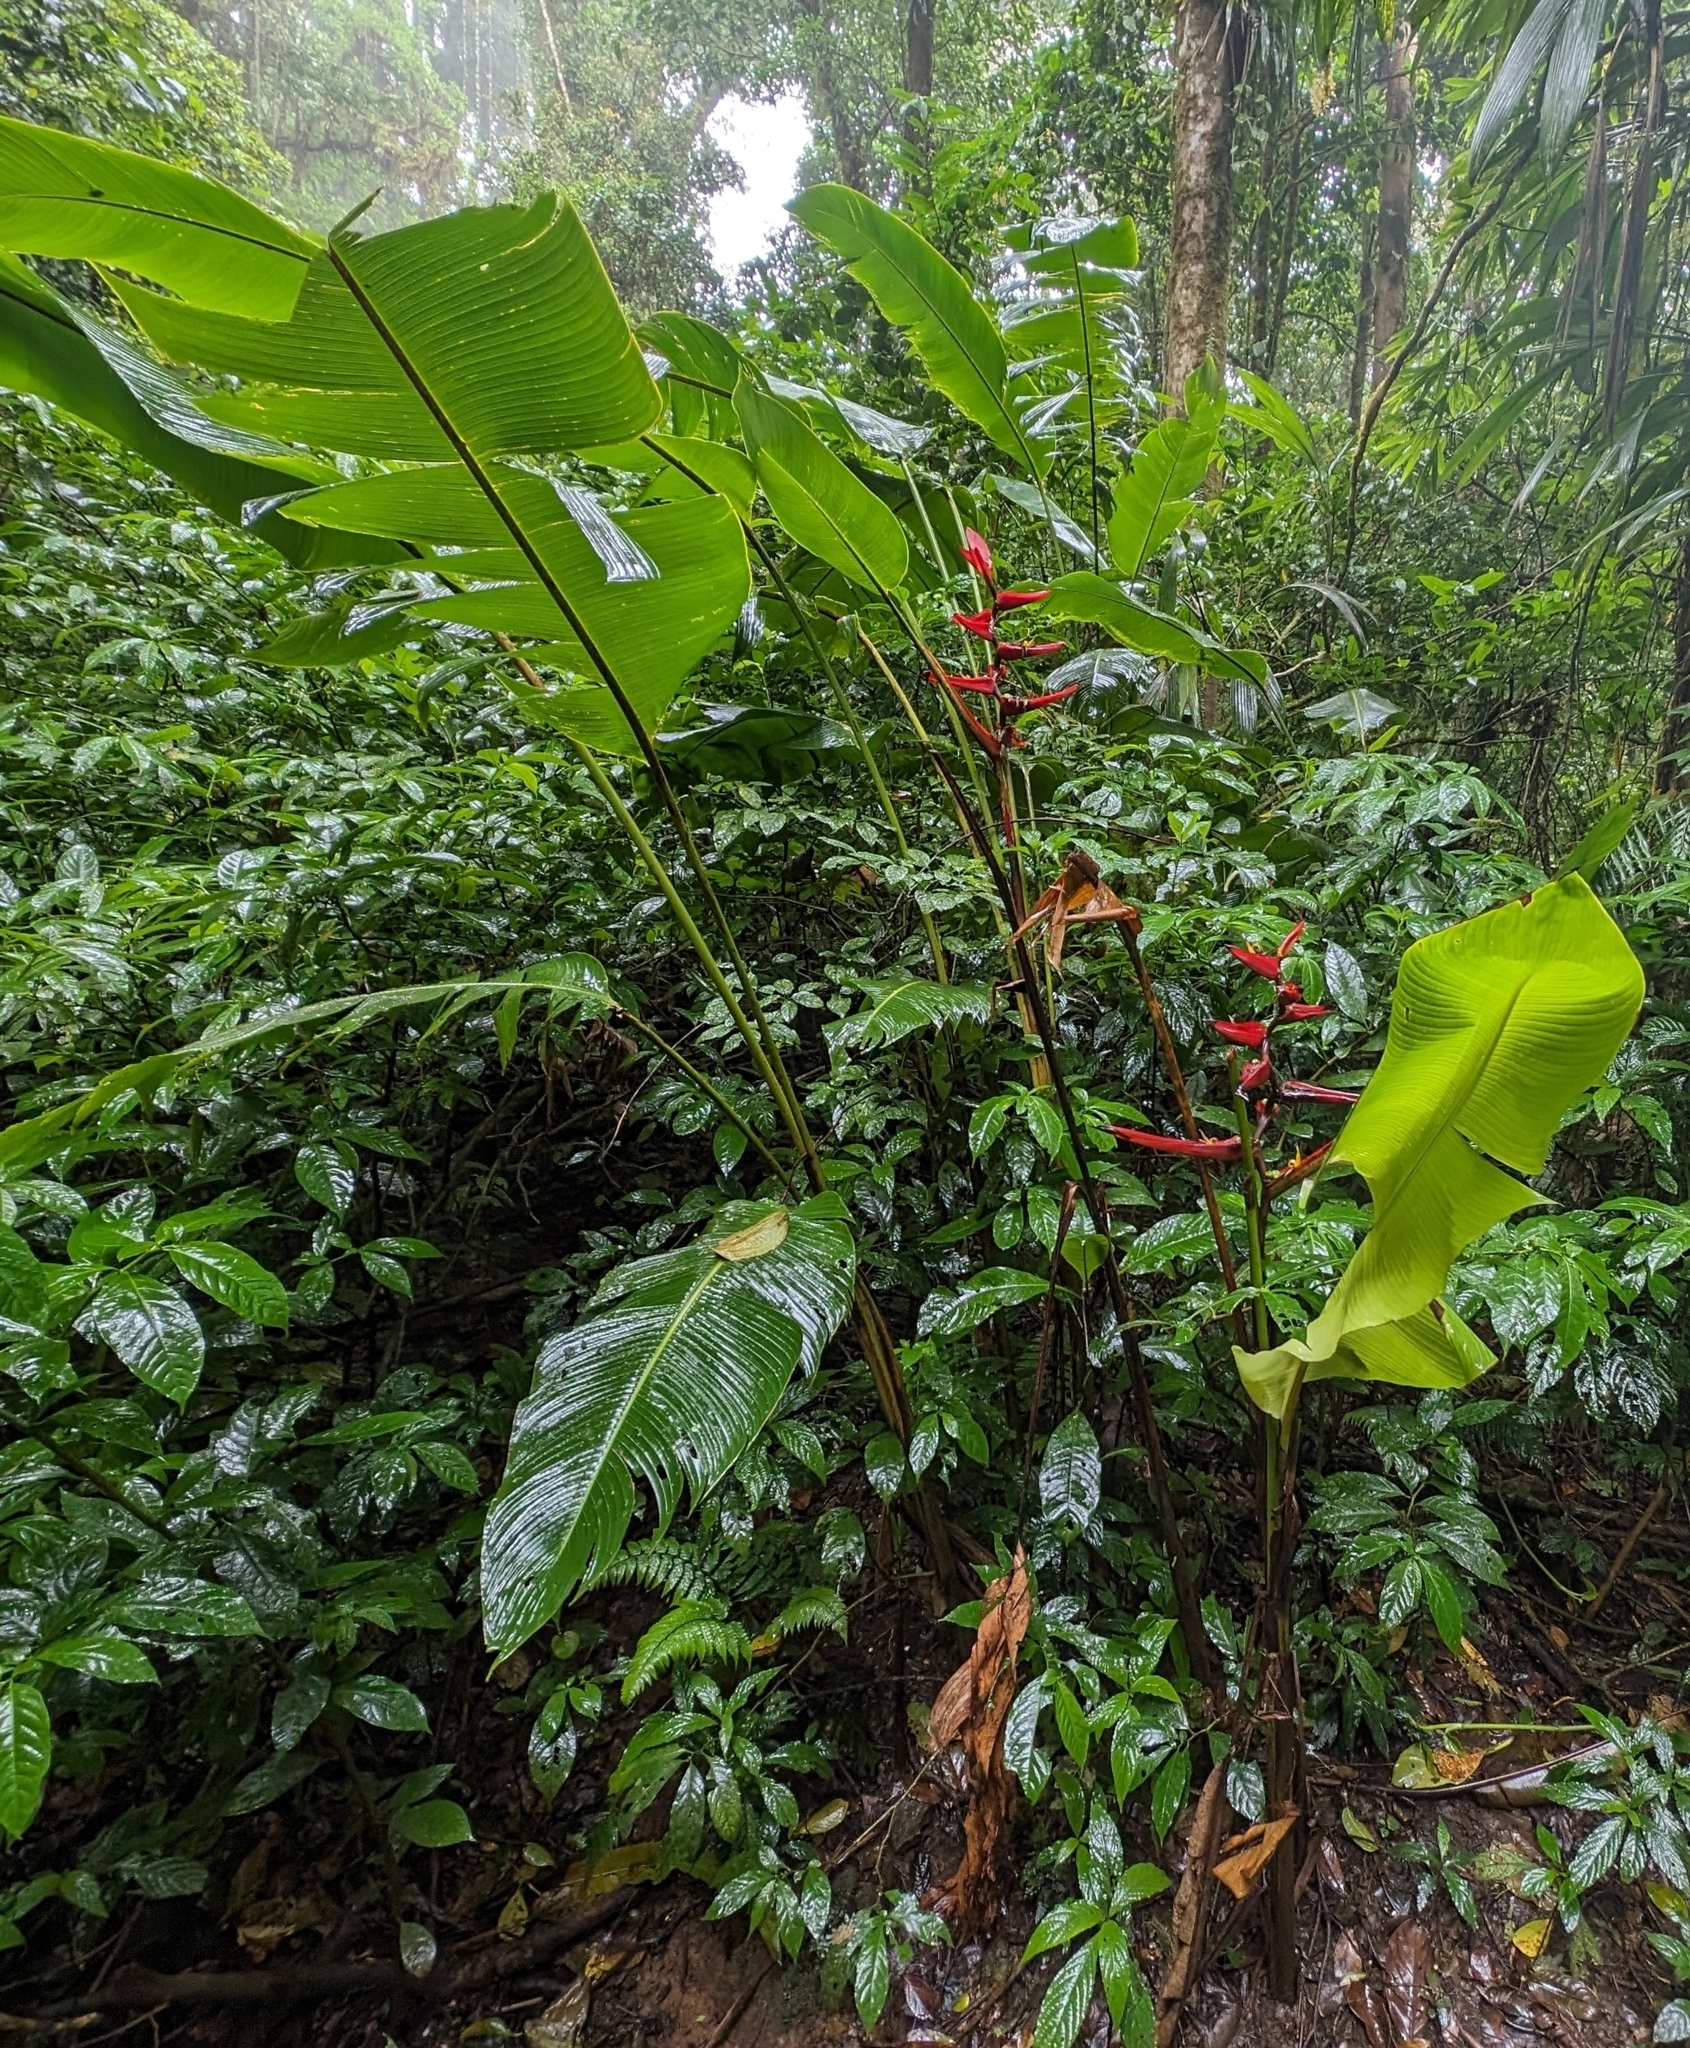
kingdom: Plantae
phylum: Tracheophyta
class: Liliopsida
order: Zingiberales
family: Heliconiaceae
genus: Heliconia
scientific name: Heliconia tortuosa
